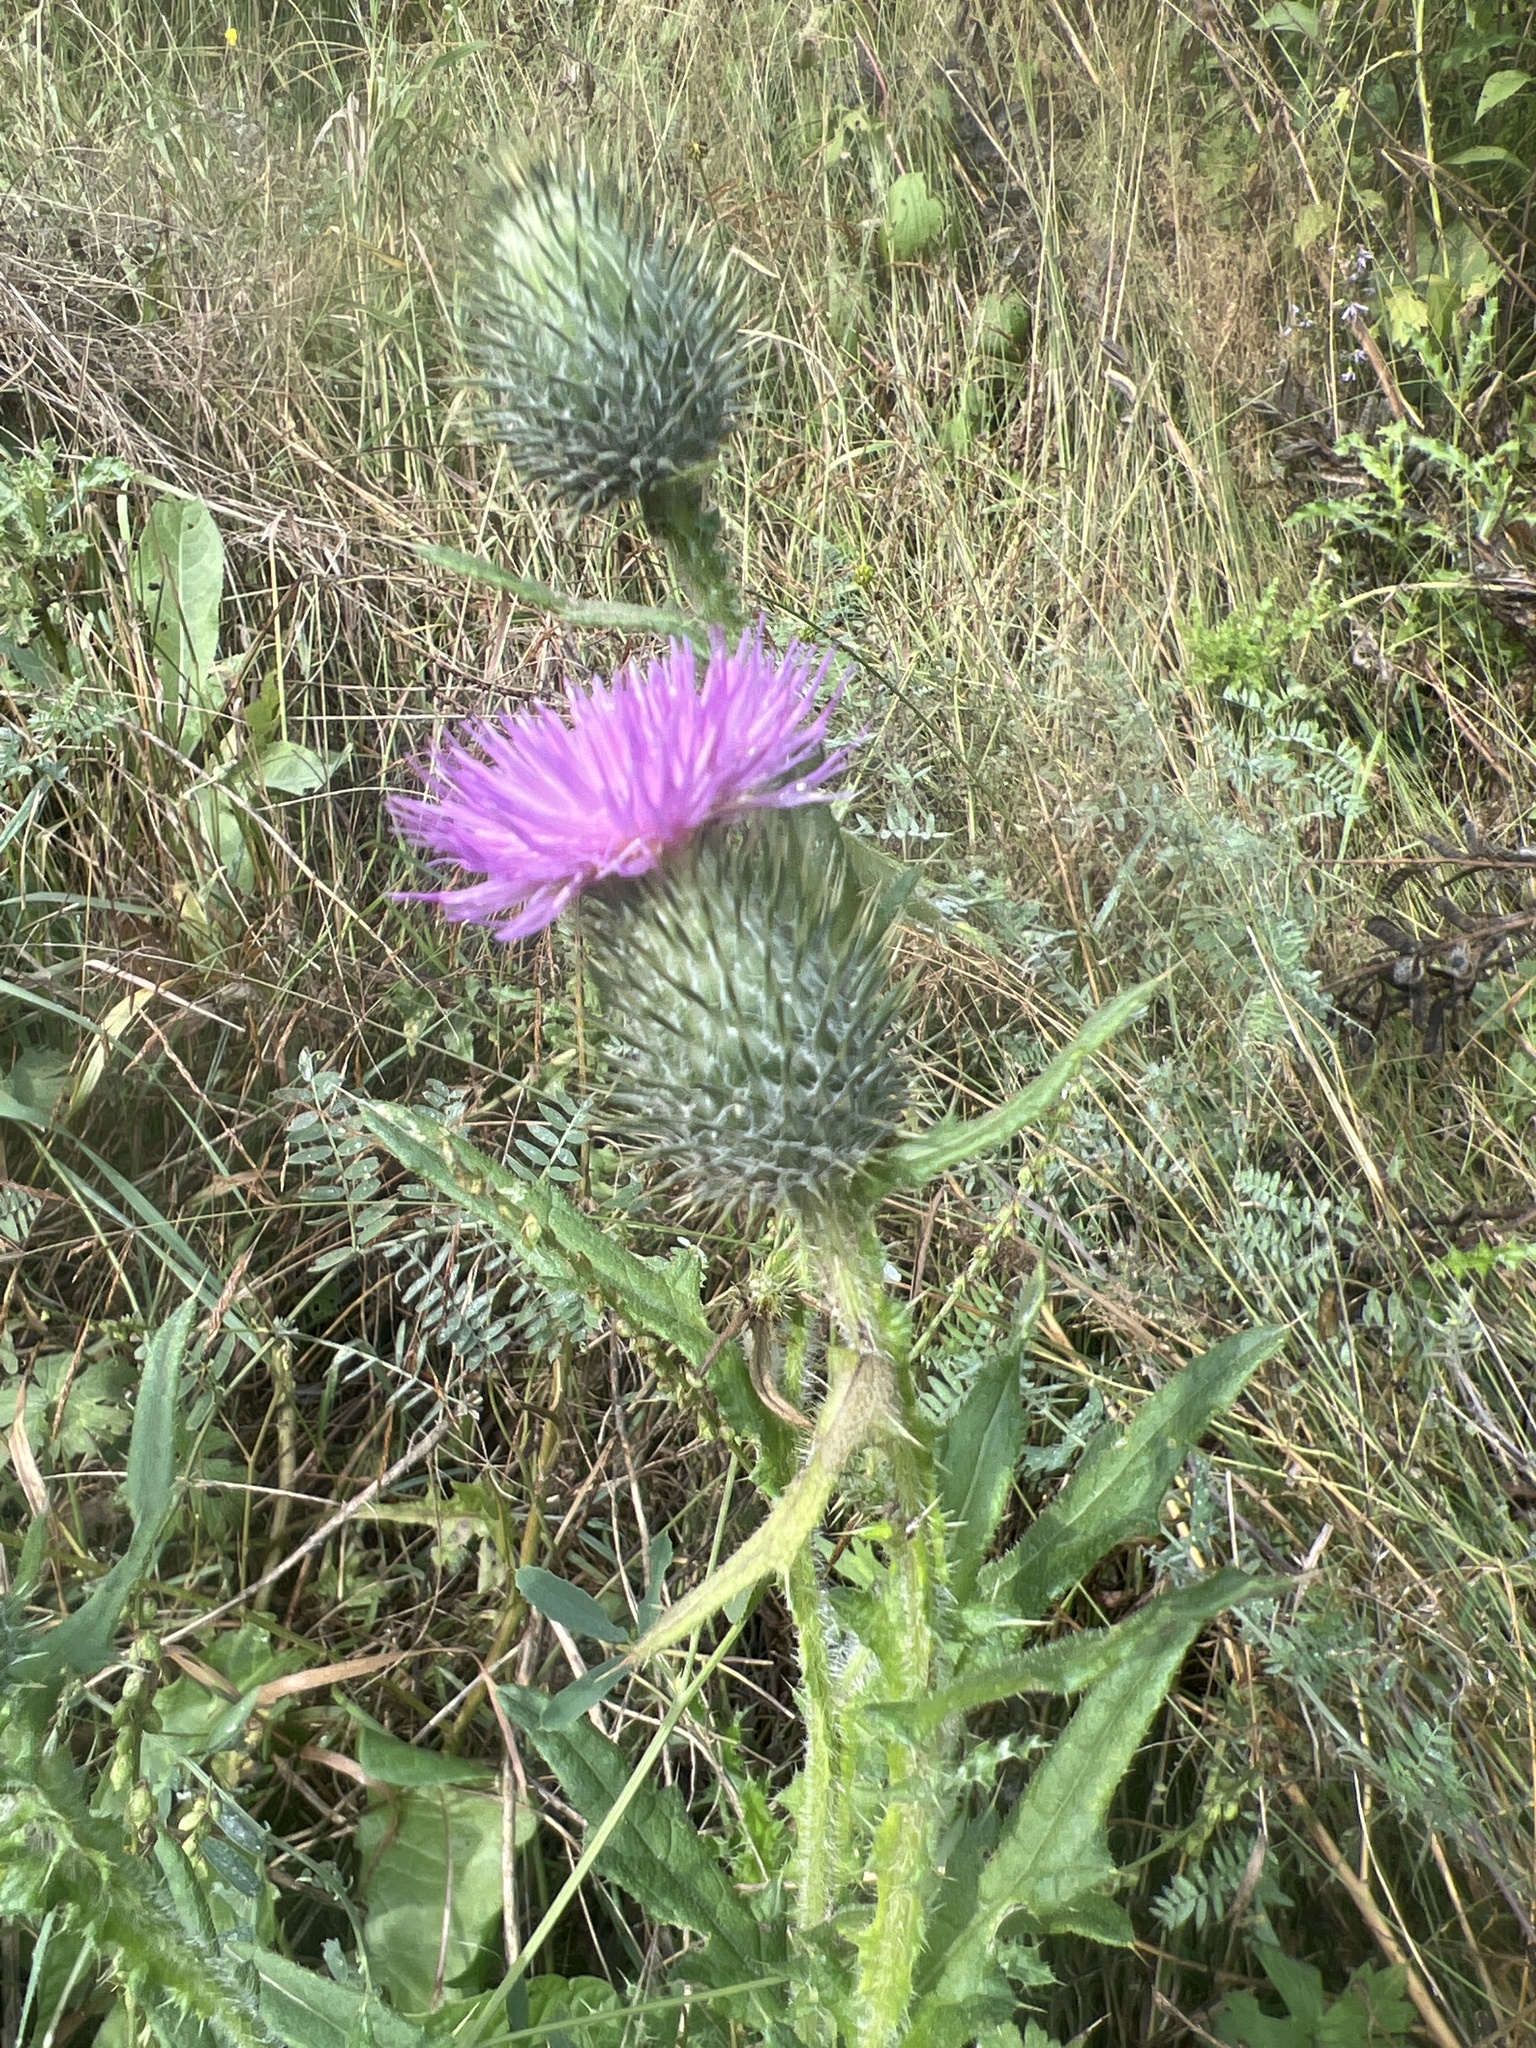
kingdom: Plantae
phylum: Tracheophyta
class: Magnoliopsida
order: Asterales
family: Asteraceae
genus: Cirsium
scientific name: Cirsium vulgare
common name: Bull thistle
